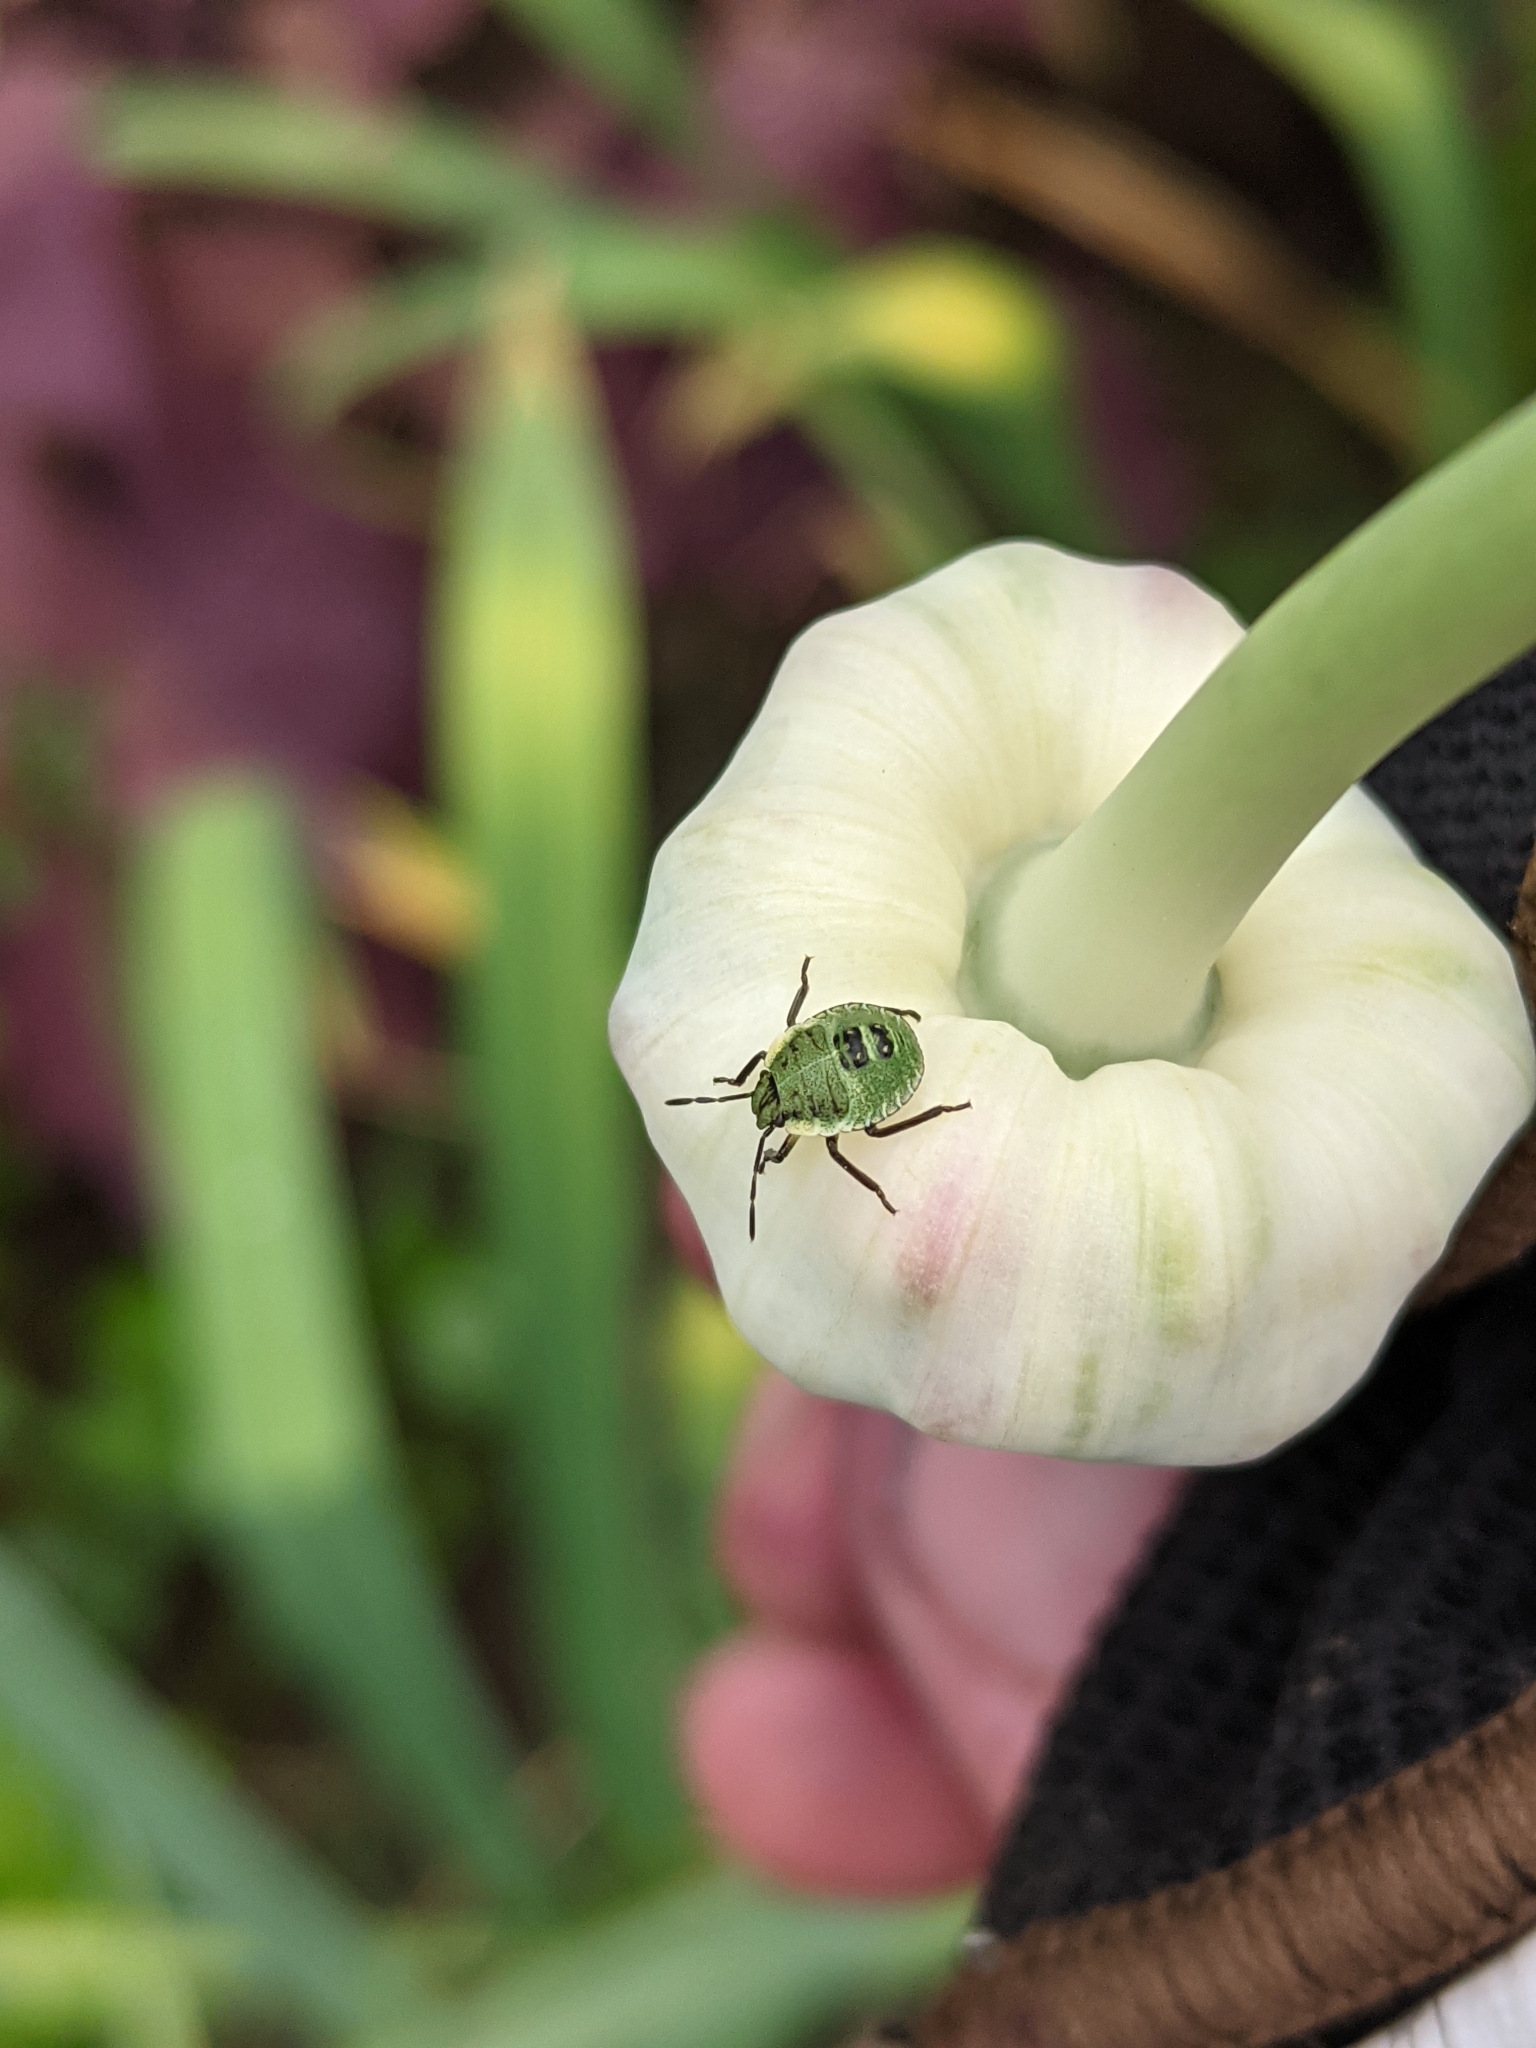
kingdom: Animalia
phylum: Arthropoda
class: Insecta
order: Hemiptera
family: Pentatomidae
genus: Palomena
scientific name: Palomena prasina
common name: Green shieldbug
